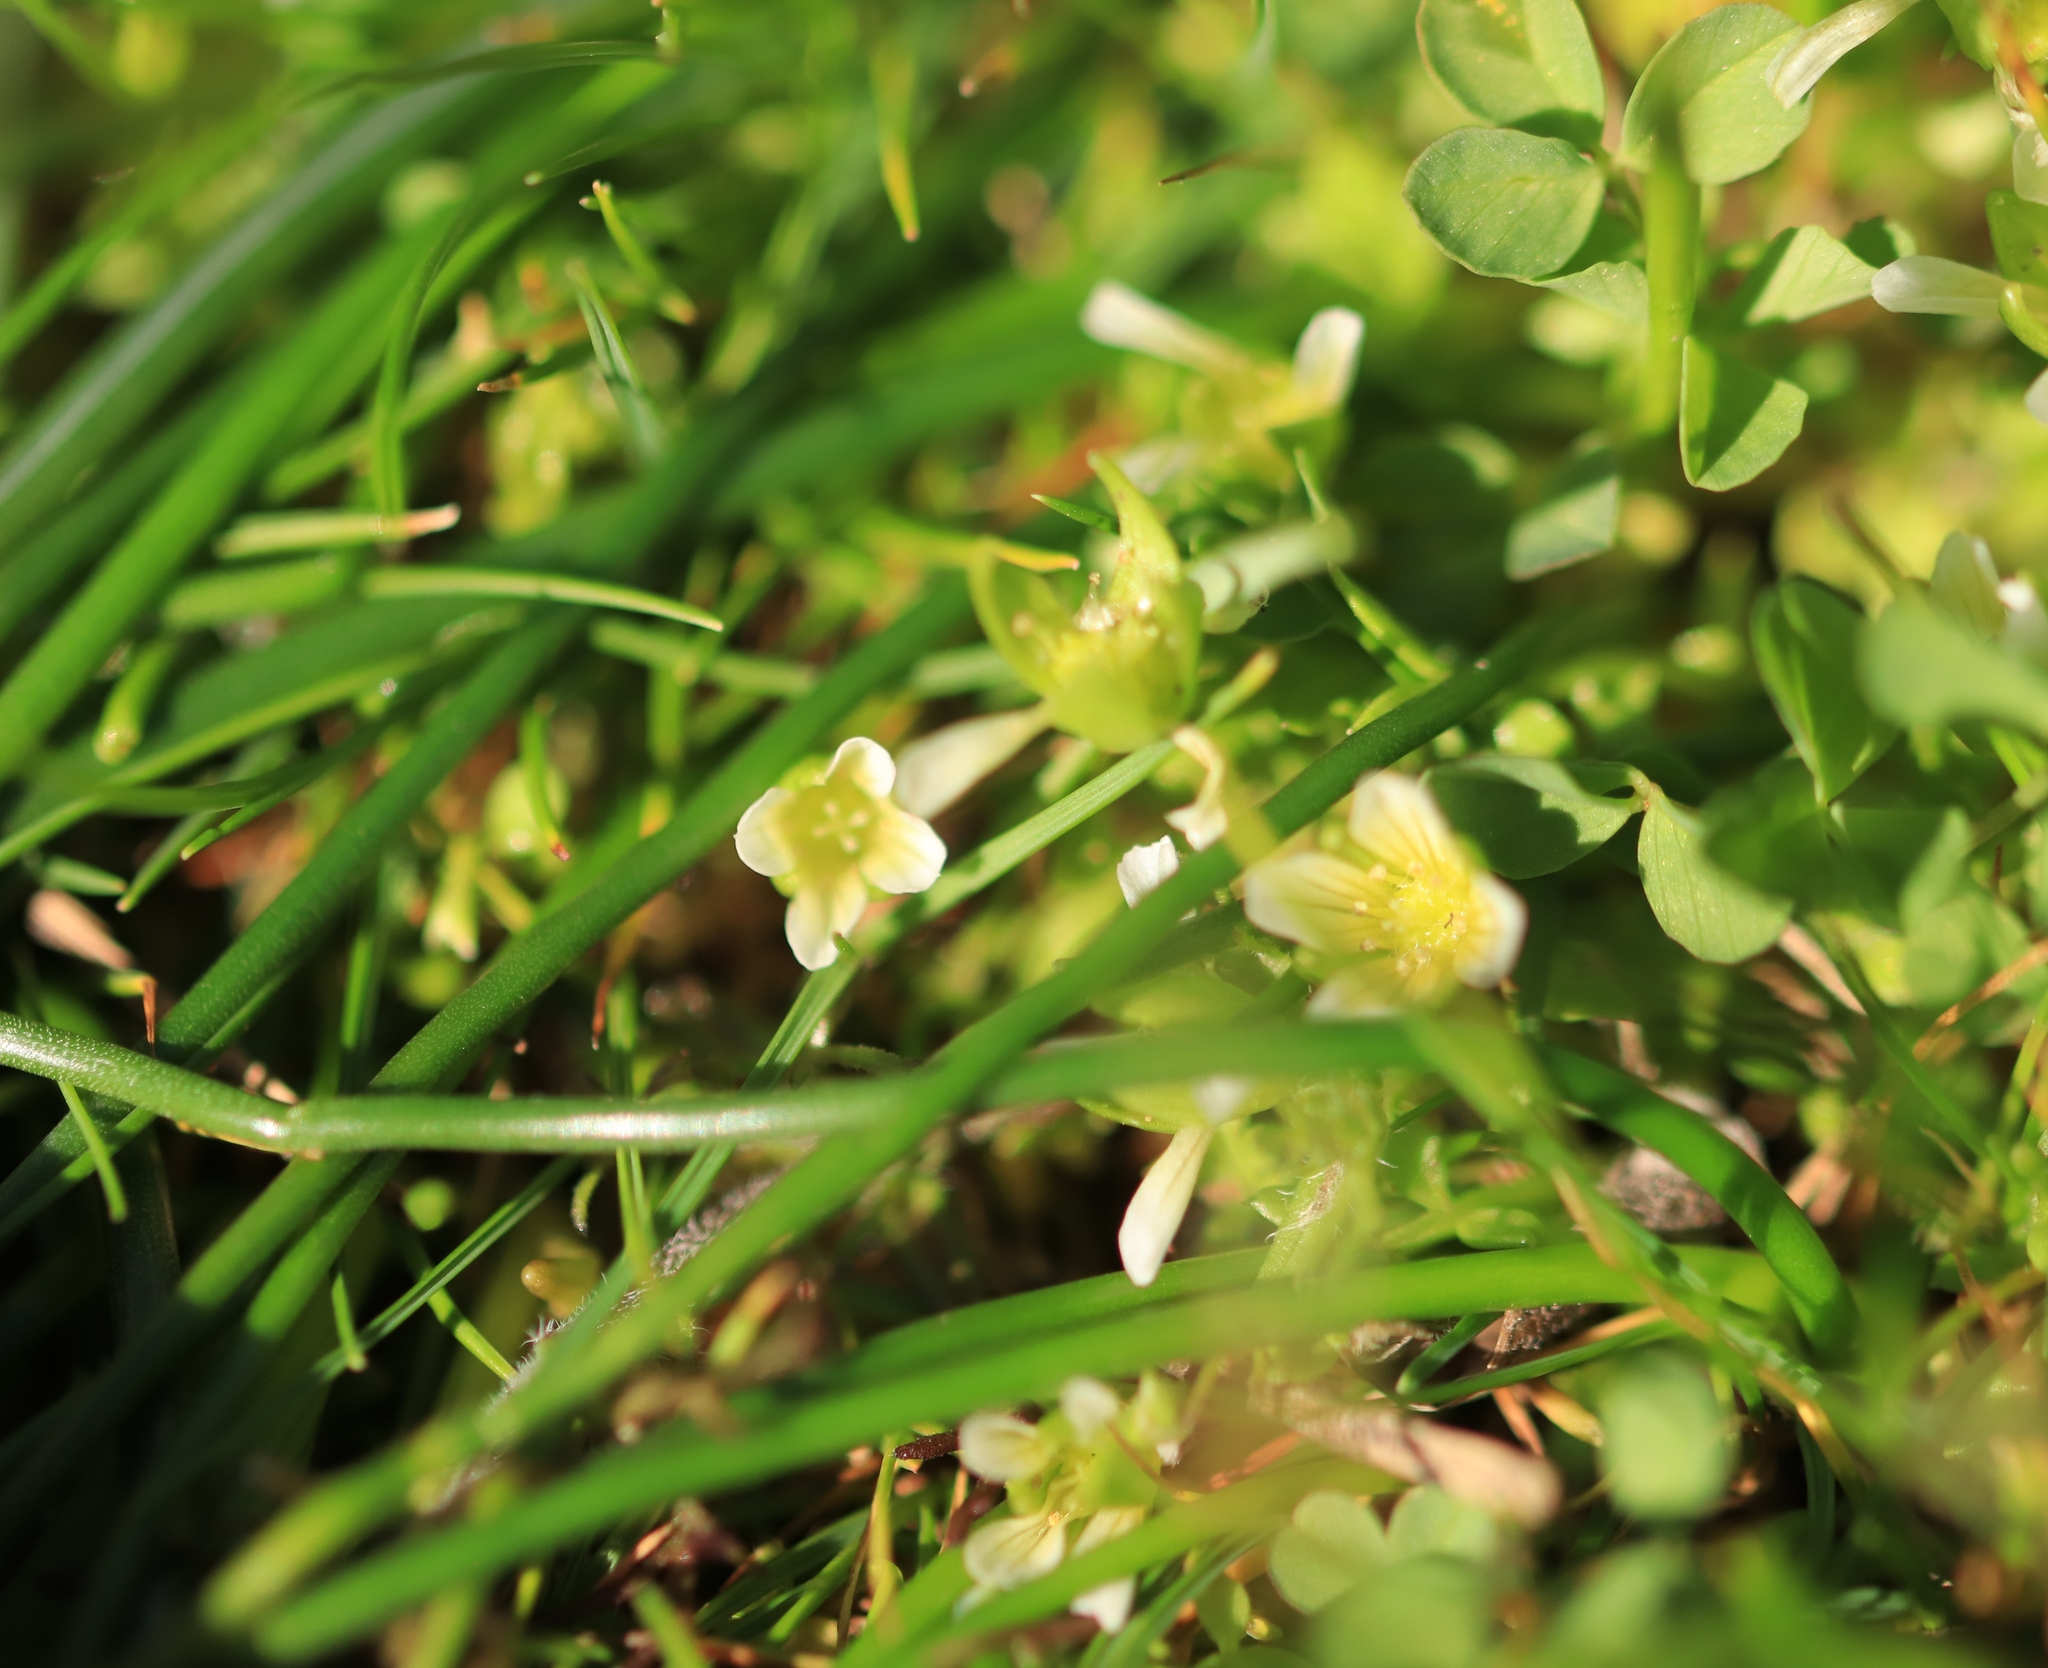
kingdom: Plantae
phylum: Tracheophyta
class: Magnoliopsida
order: Brassicales
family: Limnanthaceae
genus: Limnanthes
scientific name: Limnanthes macounii
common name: Macoun's meadowfoam
